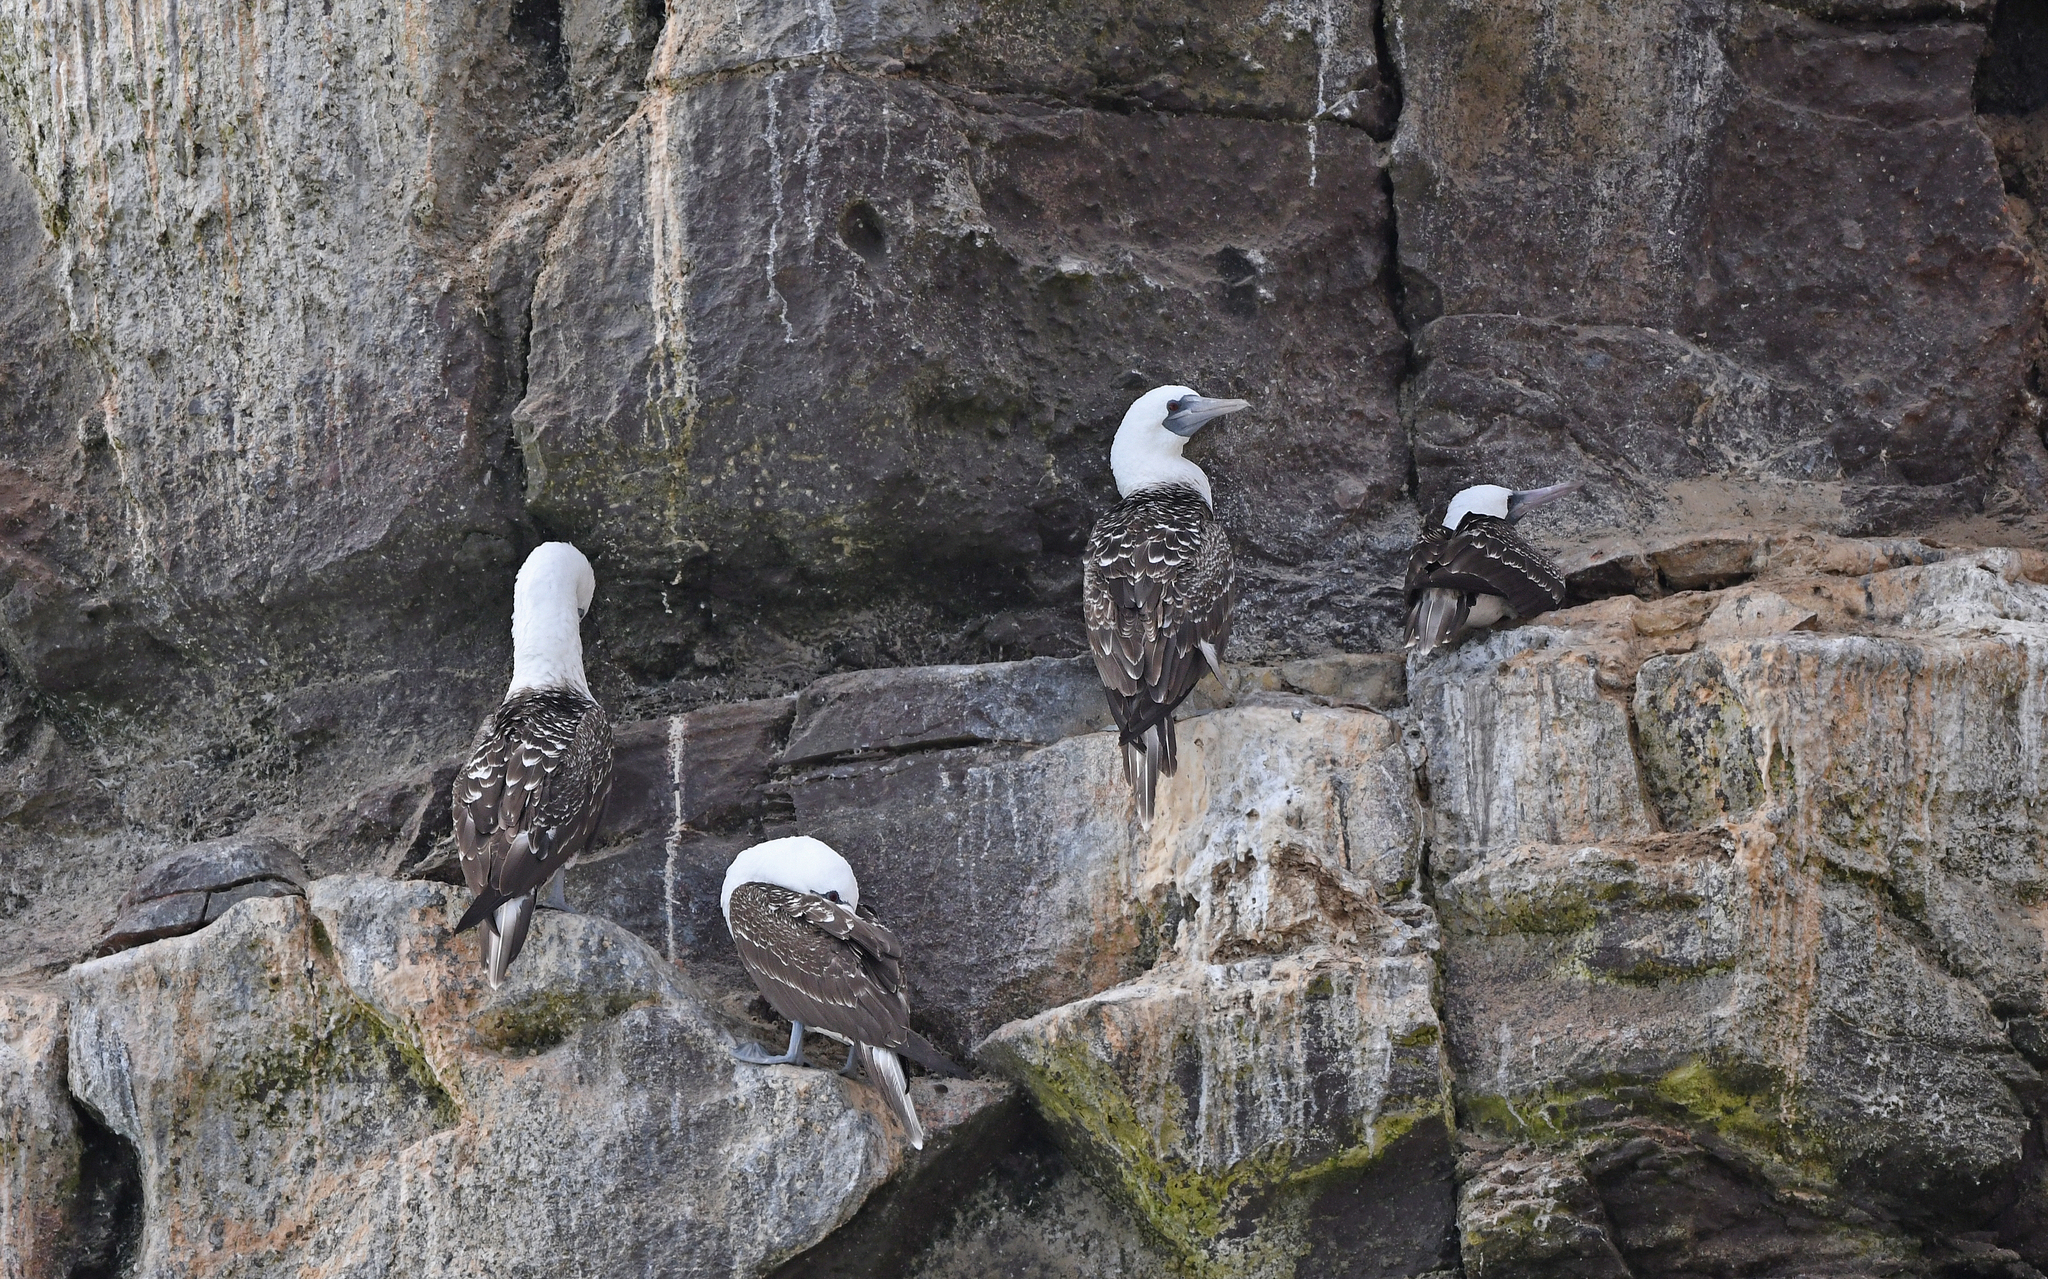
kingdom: Animalia
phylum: Chordata
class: Aves
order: Suliformes
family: Sulidae
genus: Sula
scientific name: Sula variegata
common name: Peruvian booby
